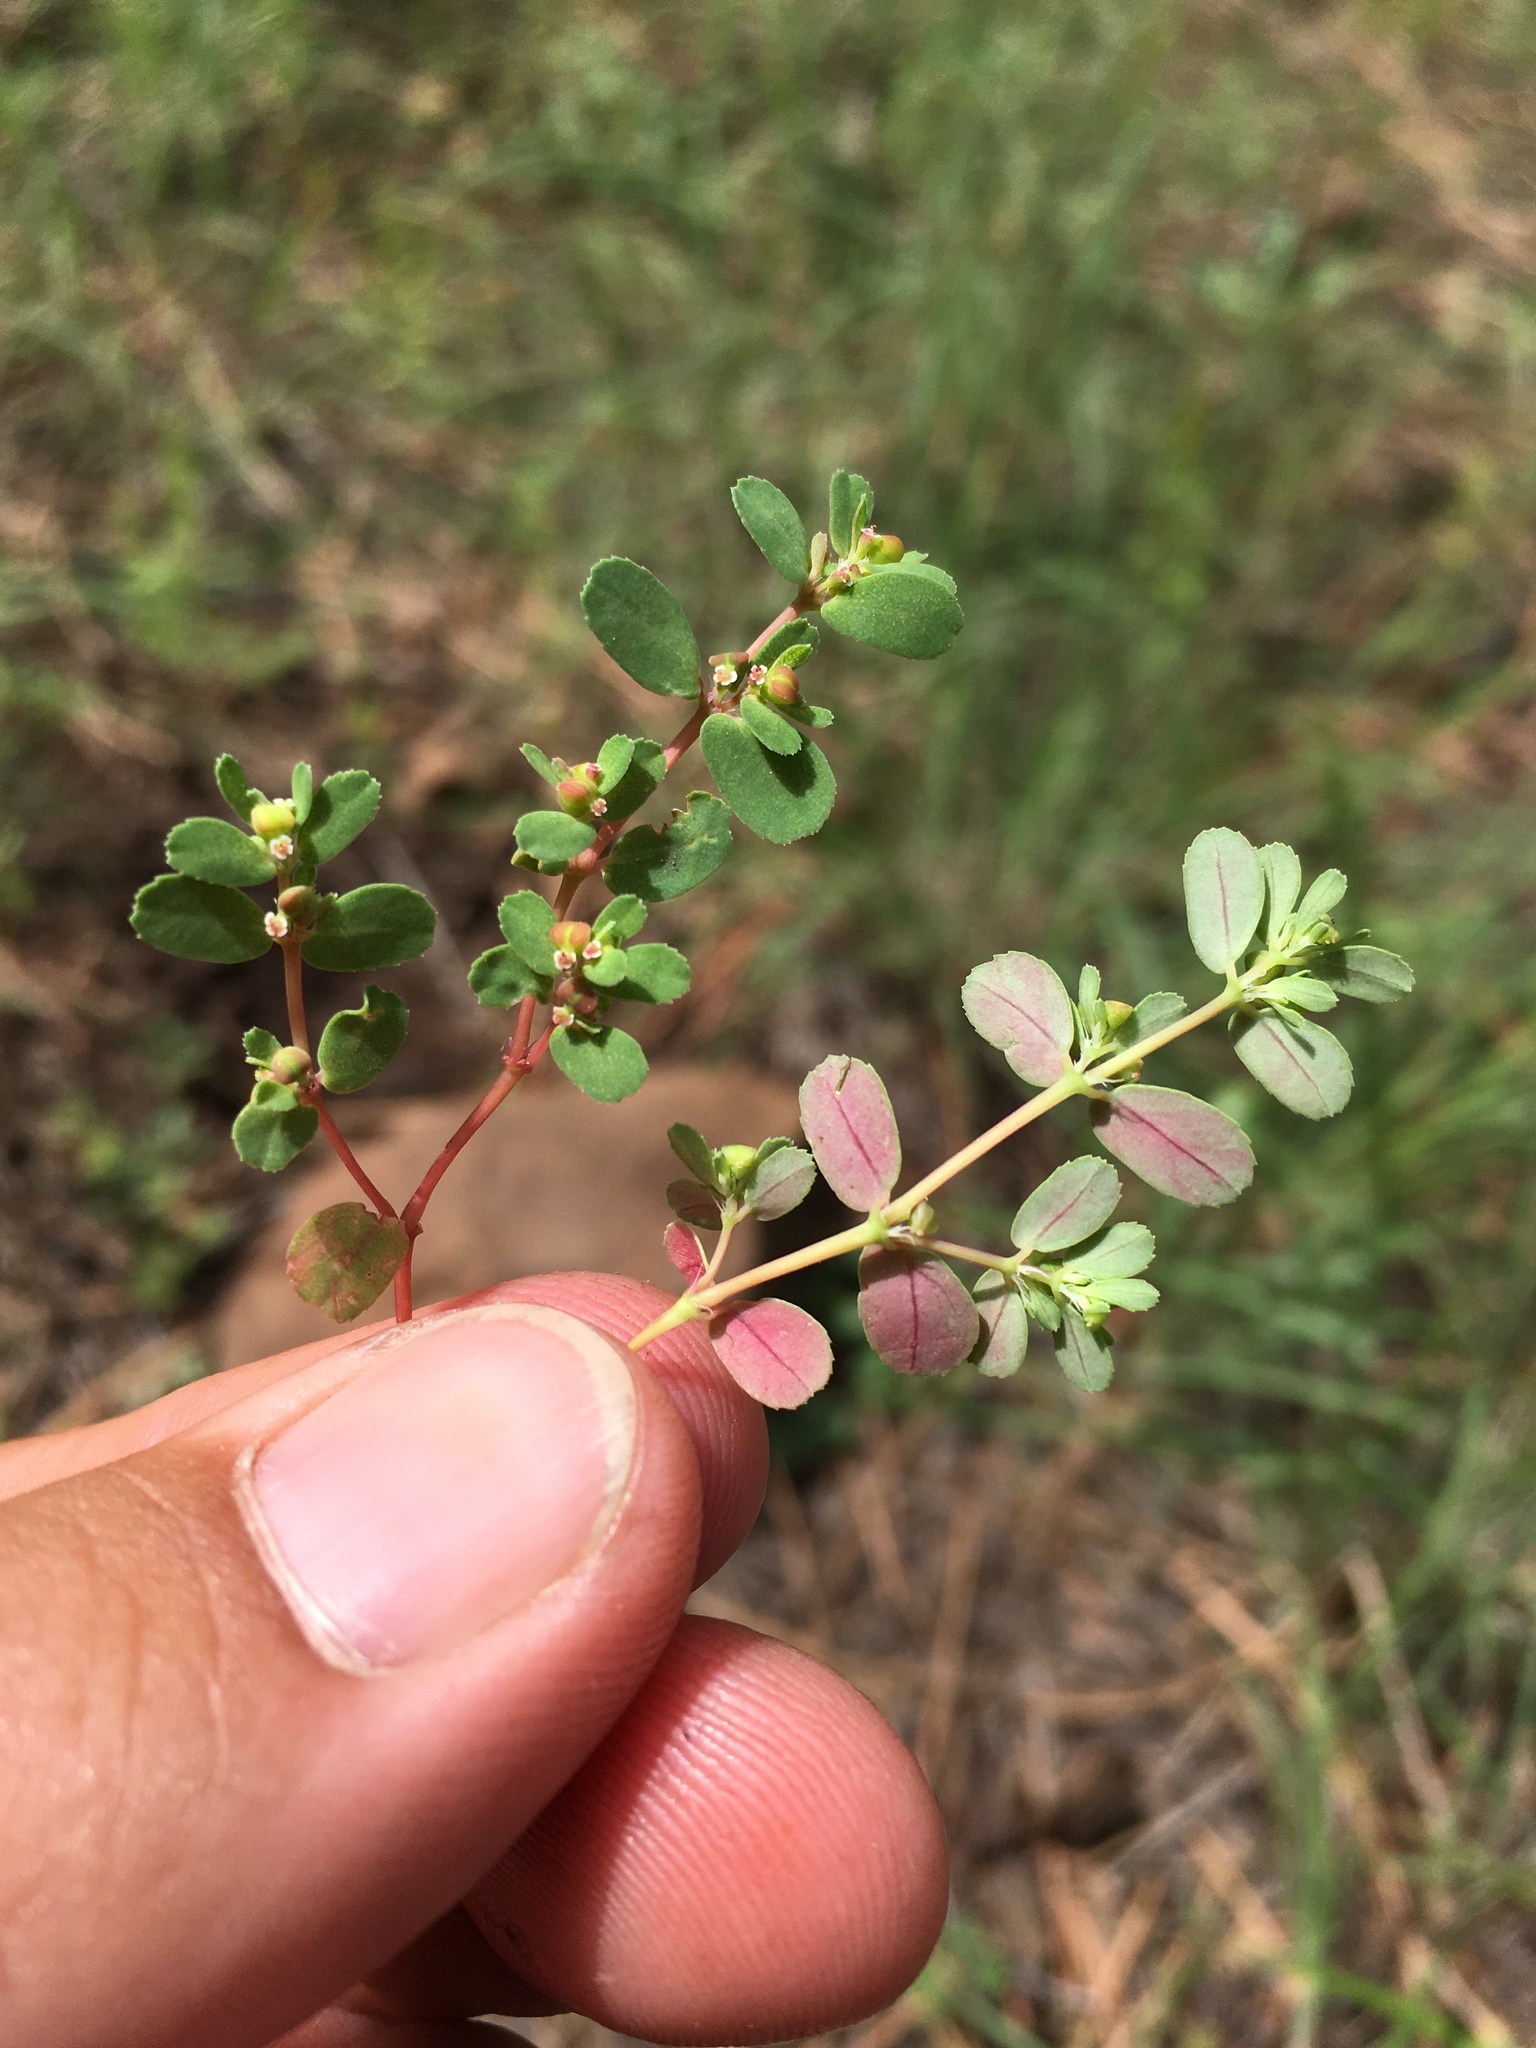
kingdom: Plantae
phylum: Tracheophyta
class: Magnoliopsida
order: Malpighiales
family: Euphorbiaceae
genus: Euphorbia
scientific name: Euphorbia serpillifolia
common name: Thyme-leaf spurge
